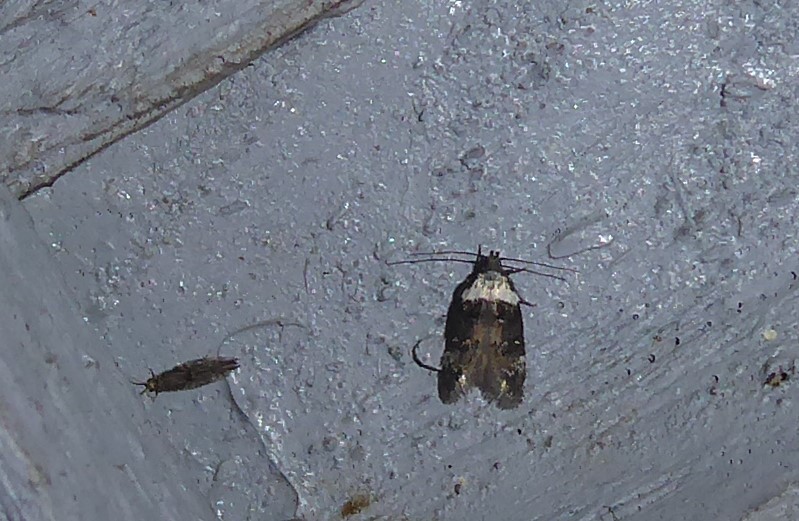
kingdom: Animalia
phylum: Arthropoda
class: Insecta
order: Lepidoptera
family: Oecophoridae
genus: Trachypepla
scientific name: Trachypepla conspicuella
